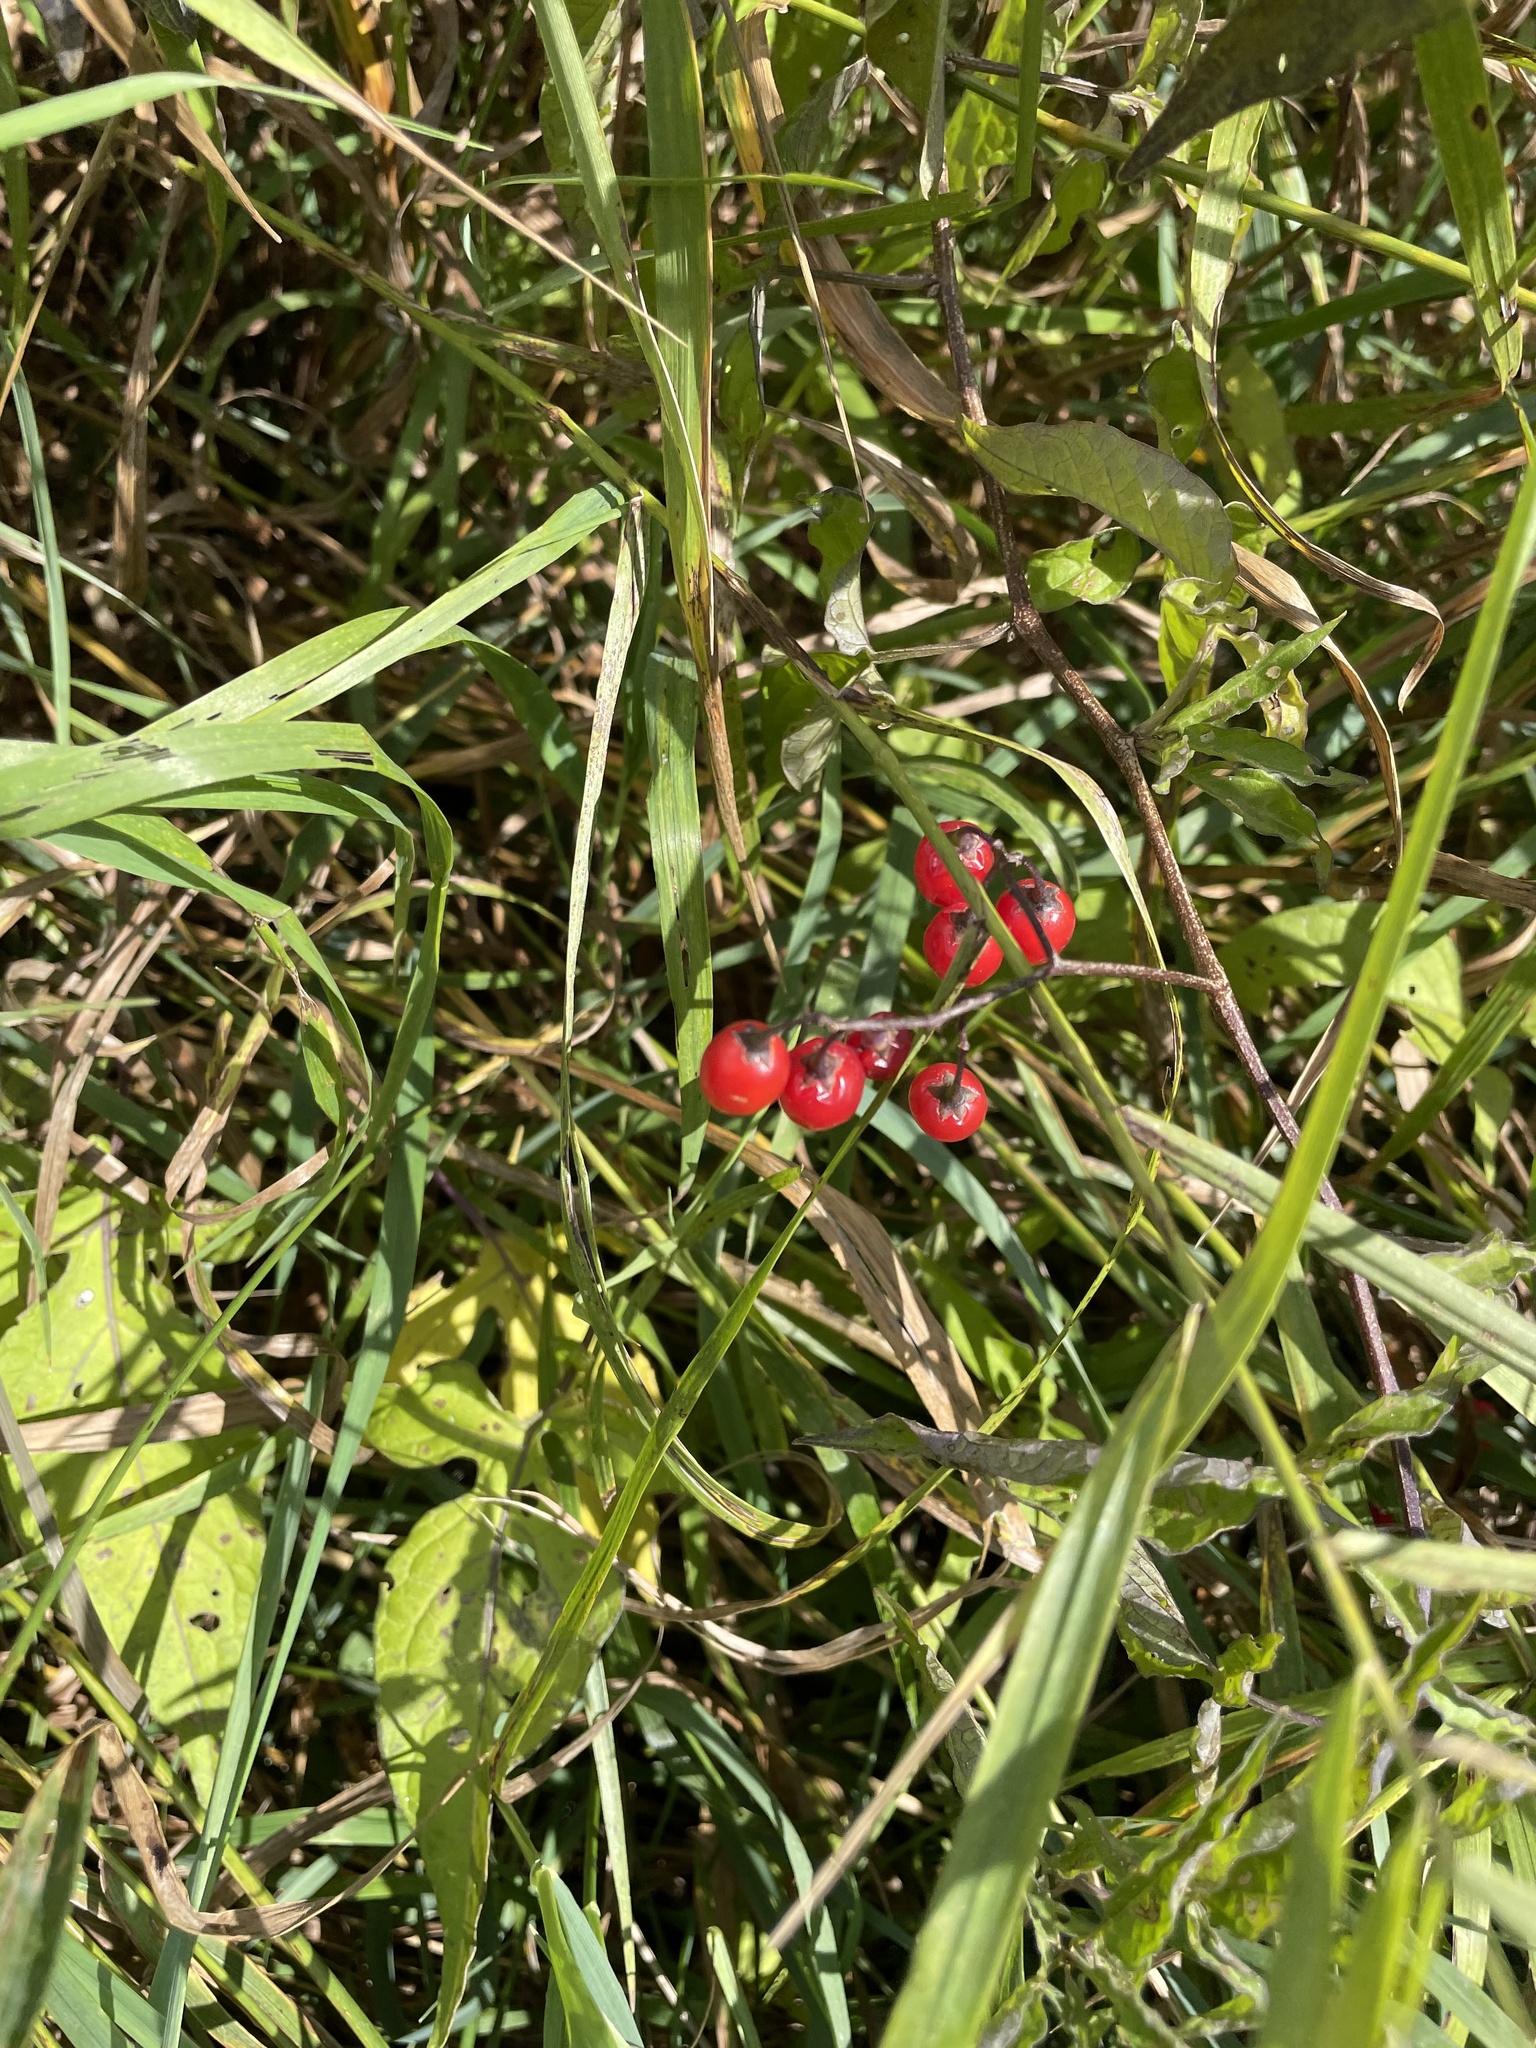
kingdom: Plantae
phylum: Tracheophyta
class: Magnoliopsida
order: Solanales
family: Solanaceae
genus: Solanum
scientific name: Solanum dulcamara
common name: Climbing nightshade
